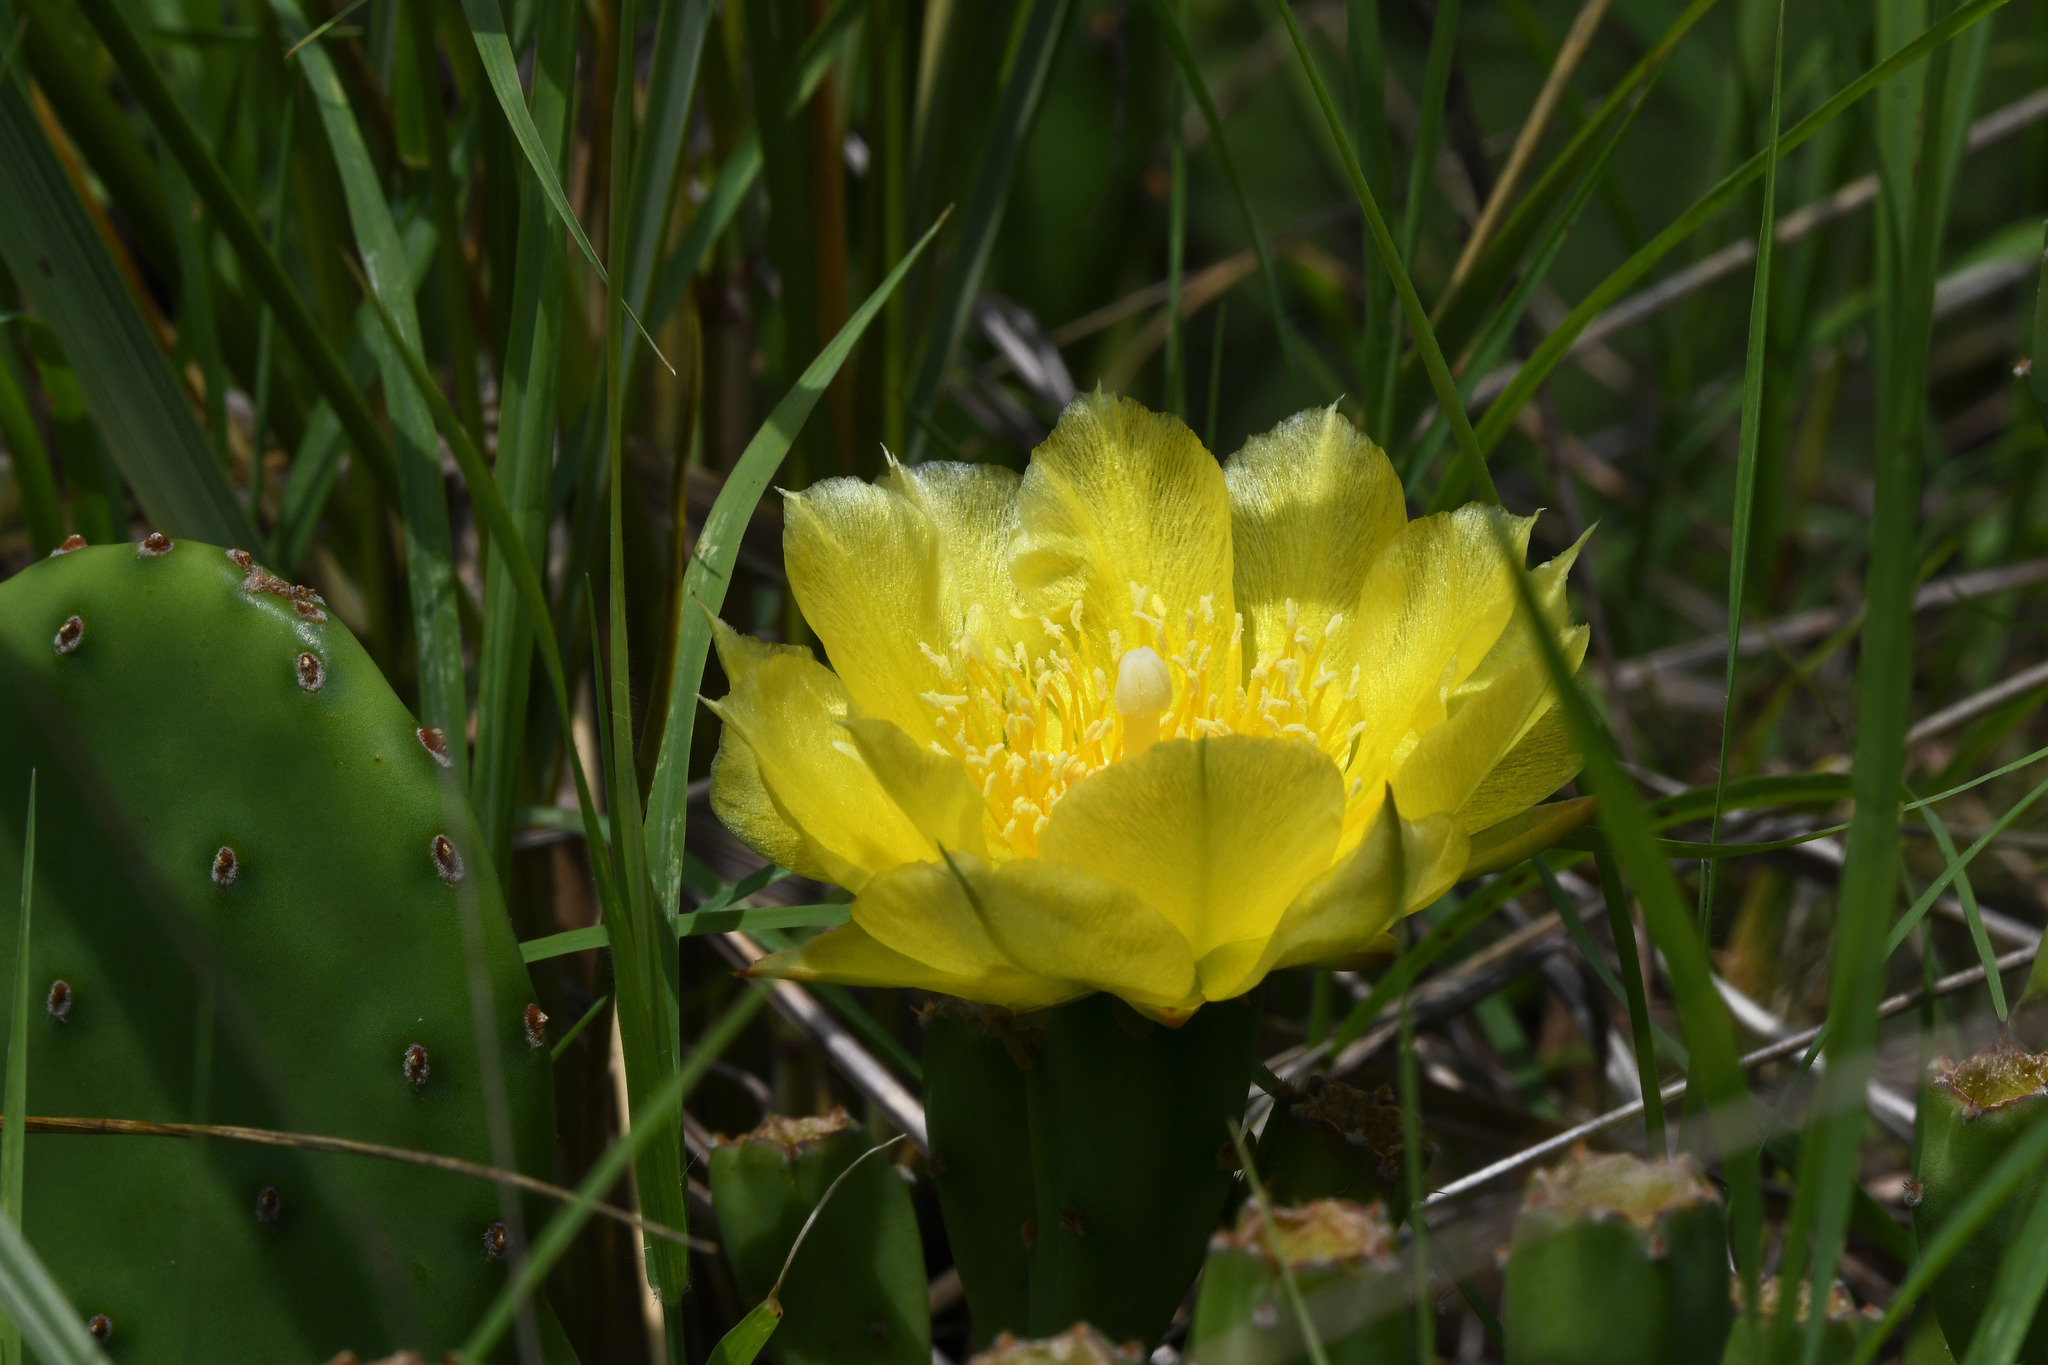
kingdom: Plantae
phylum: Tracheophyta
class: Magnoliopsida
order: Caryophyllales
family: Cactaceae
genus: Opuntia
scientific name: Opuntia humifusa
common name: Eastern prickly-pear
